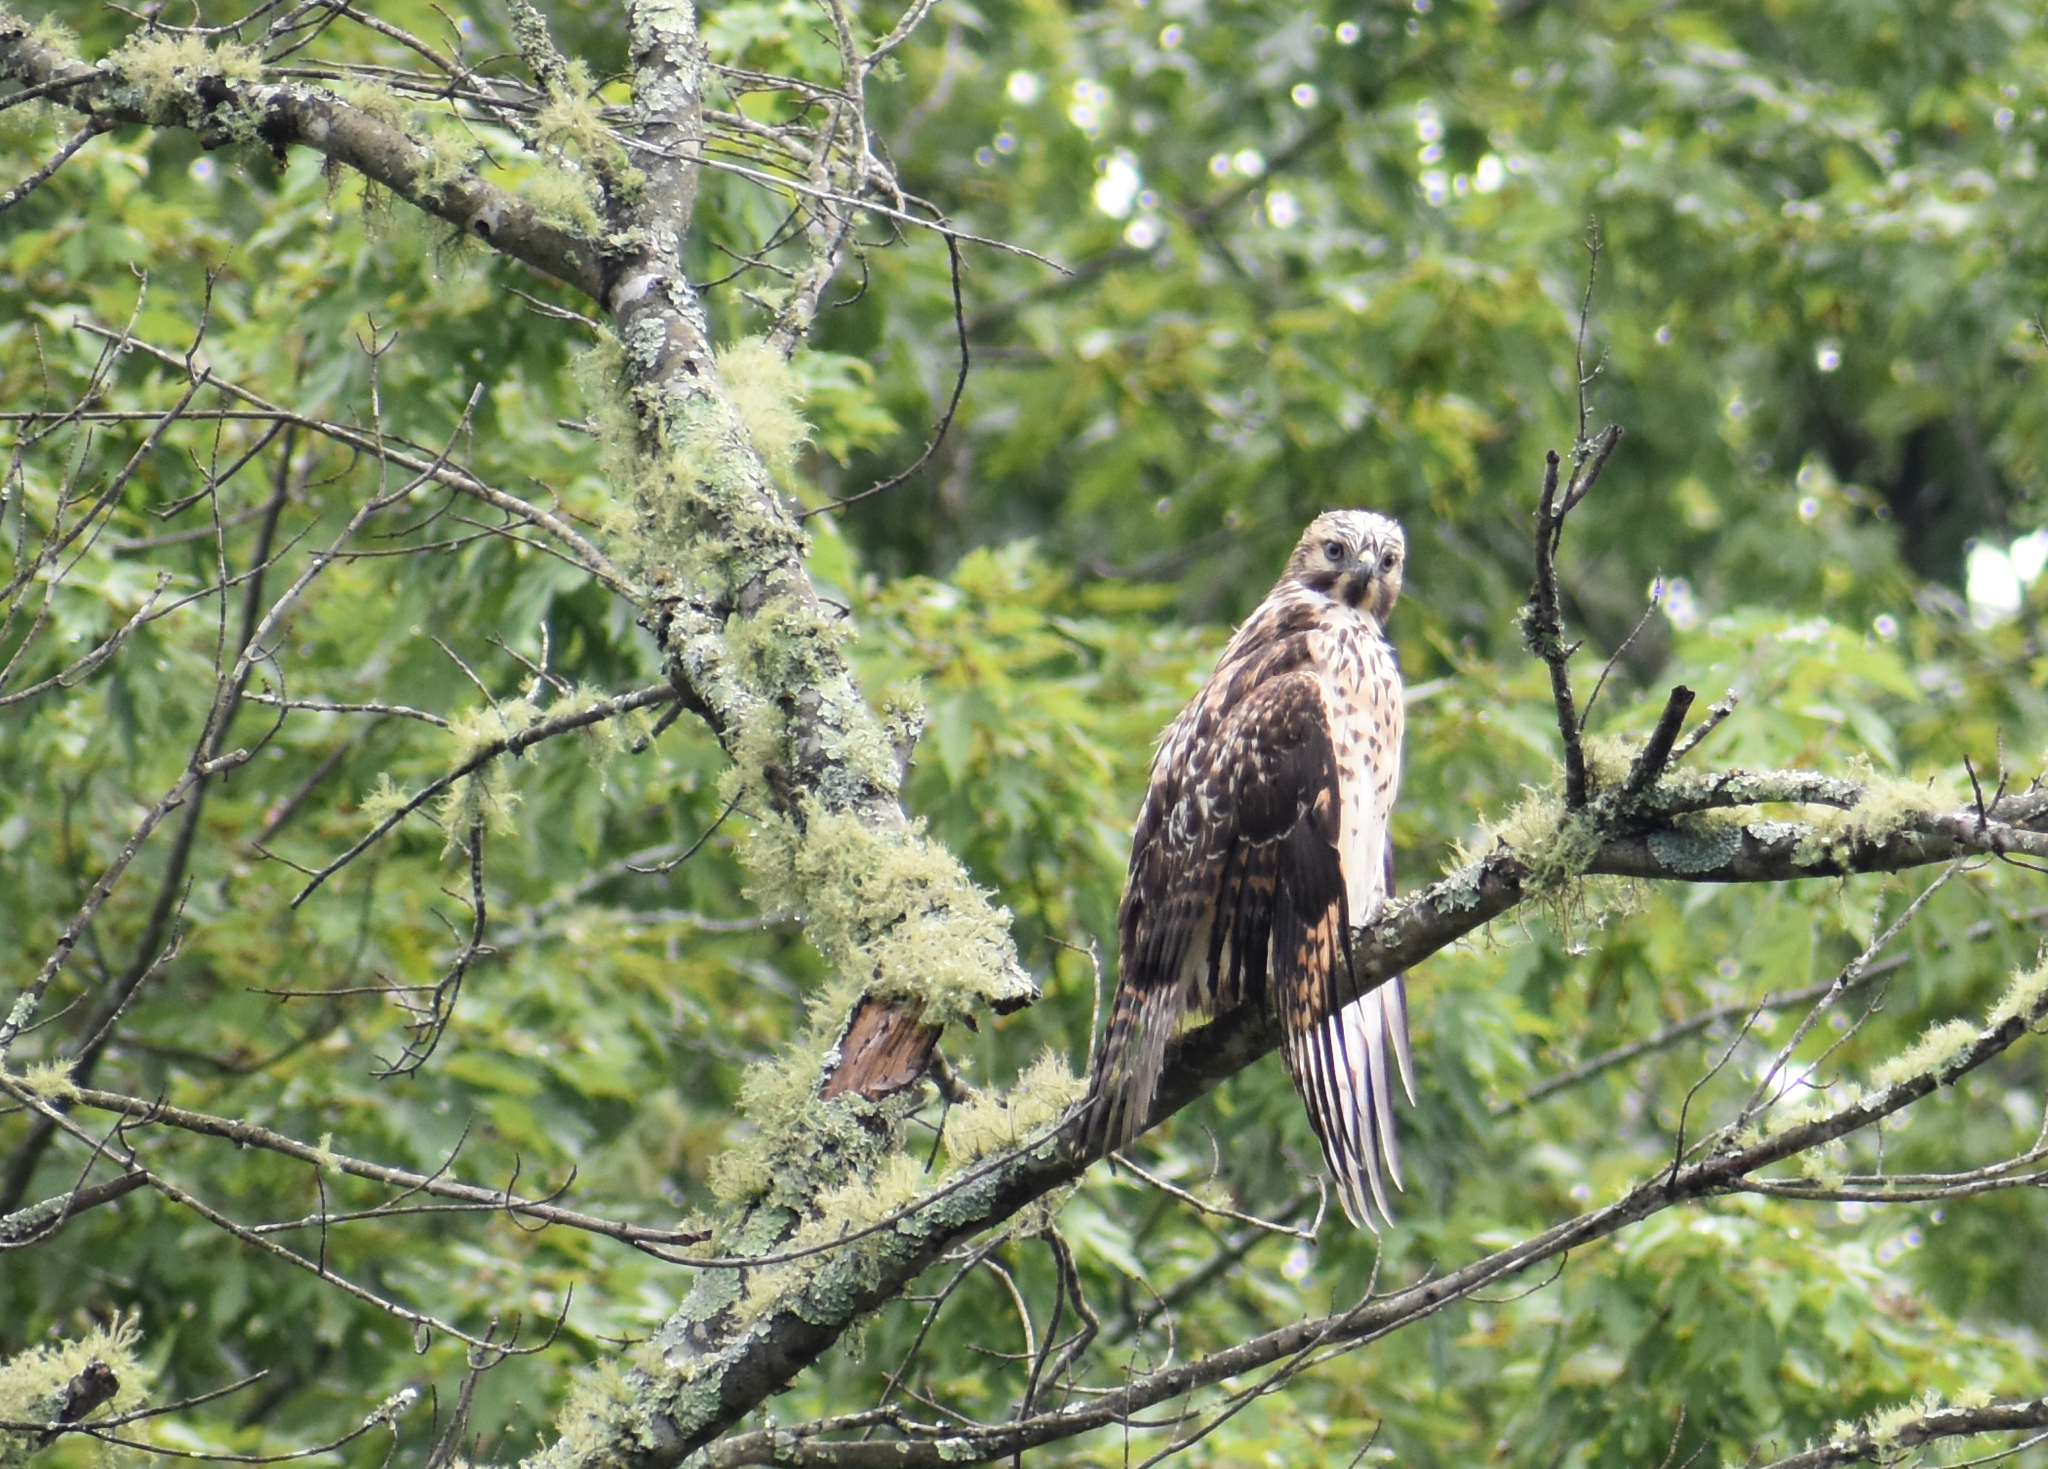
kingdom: Animalia
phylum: Chordata
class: Aves
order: Accipitriformes
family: Accipitridae
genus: Buteo
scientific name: Buteo lineatus
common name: Red-shouldered hawk
